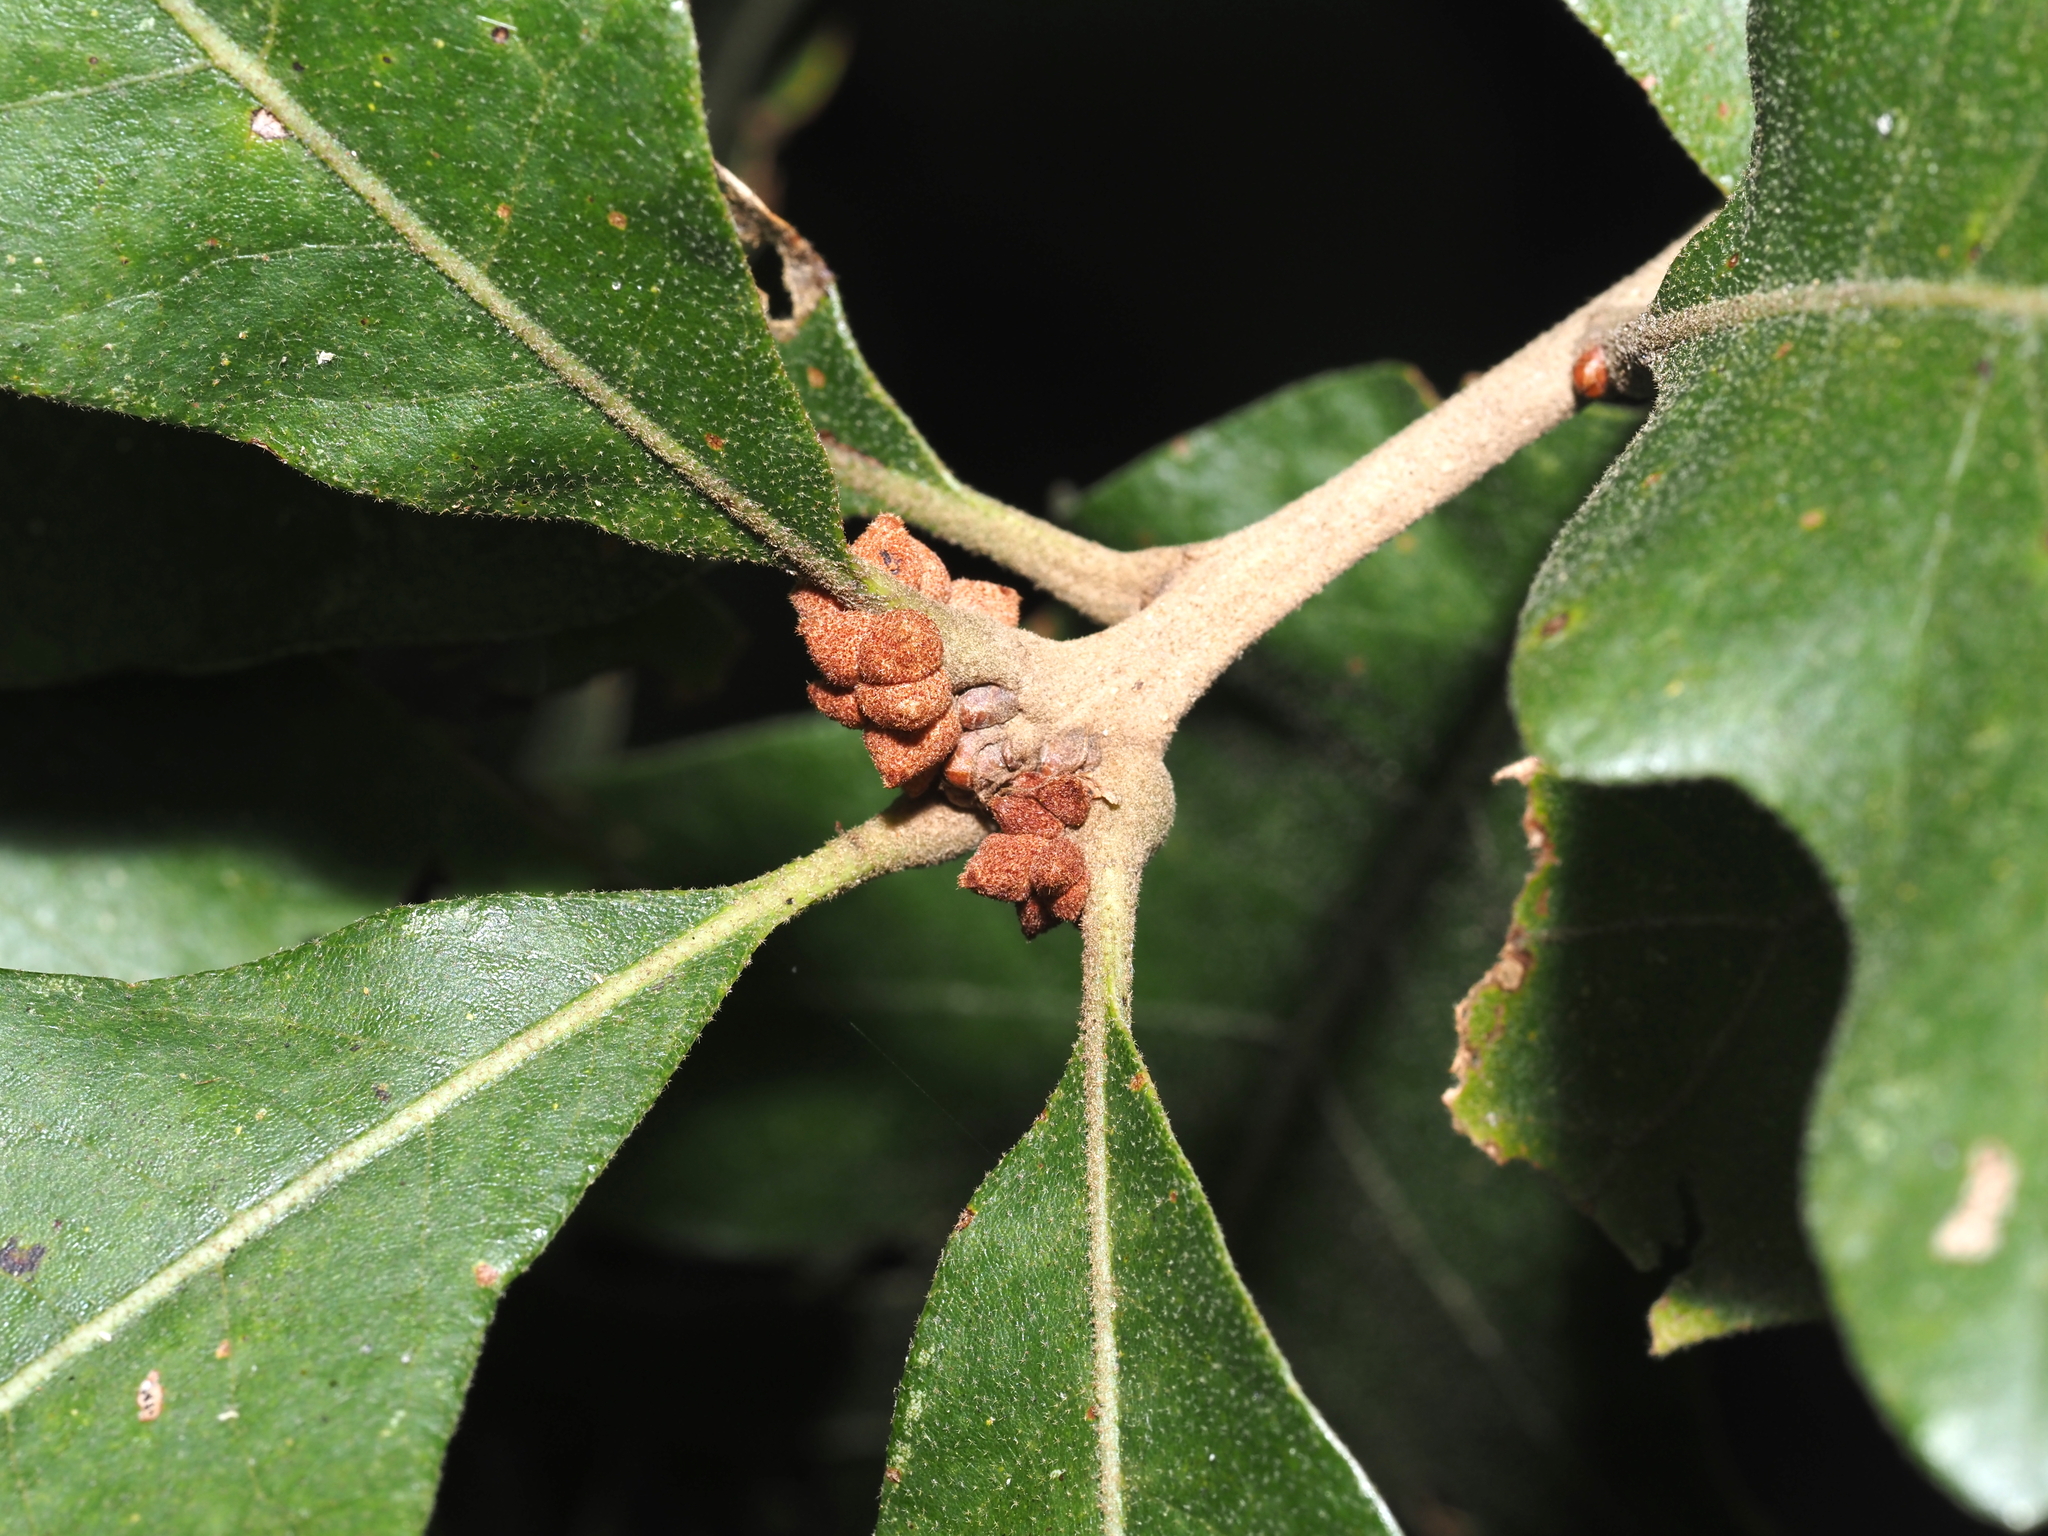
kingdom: Animalia
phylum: Arthropoda
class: Insecta
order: Hymenoptera
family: Cynipidae
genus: Andricus
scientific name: Andricus
